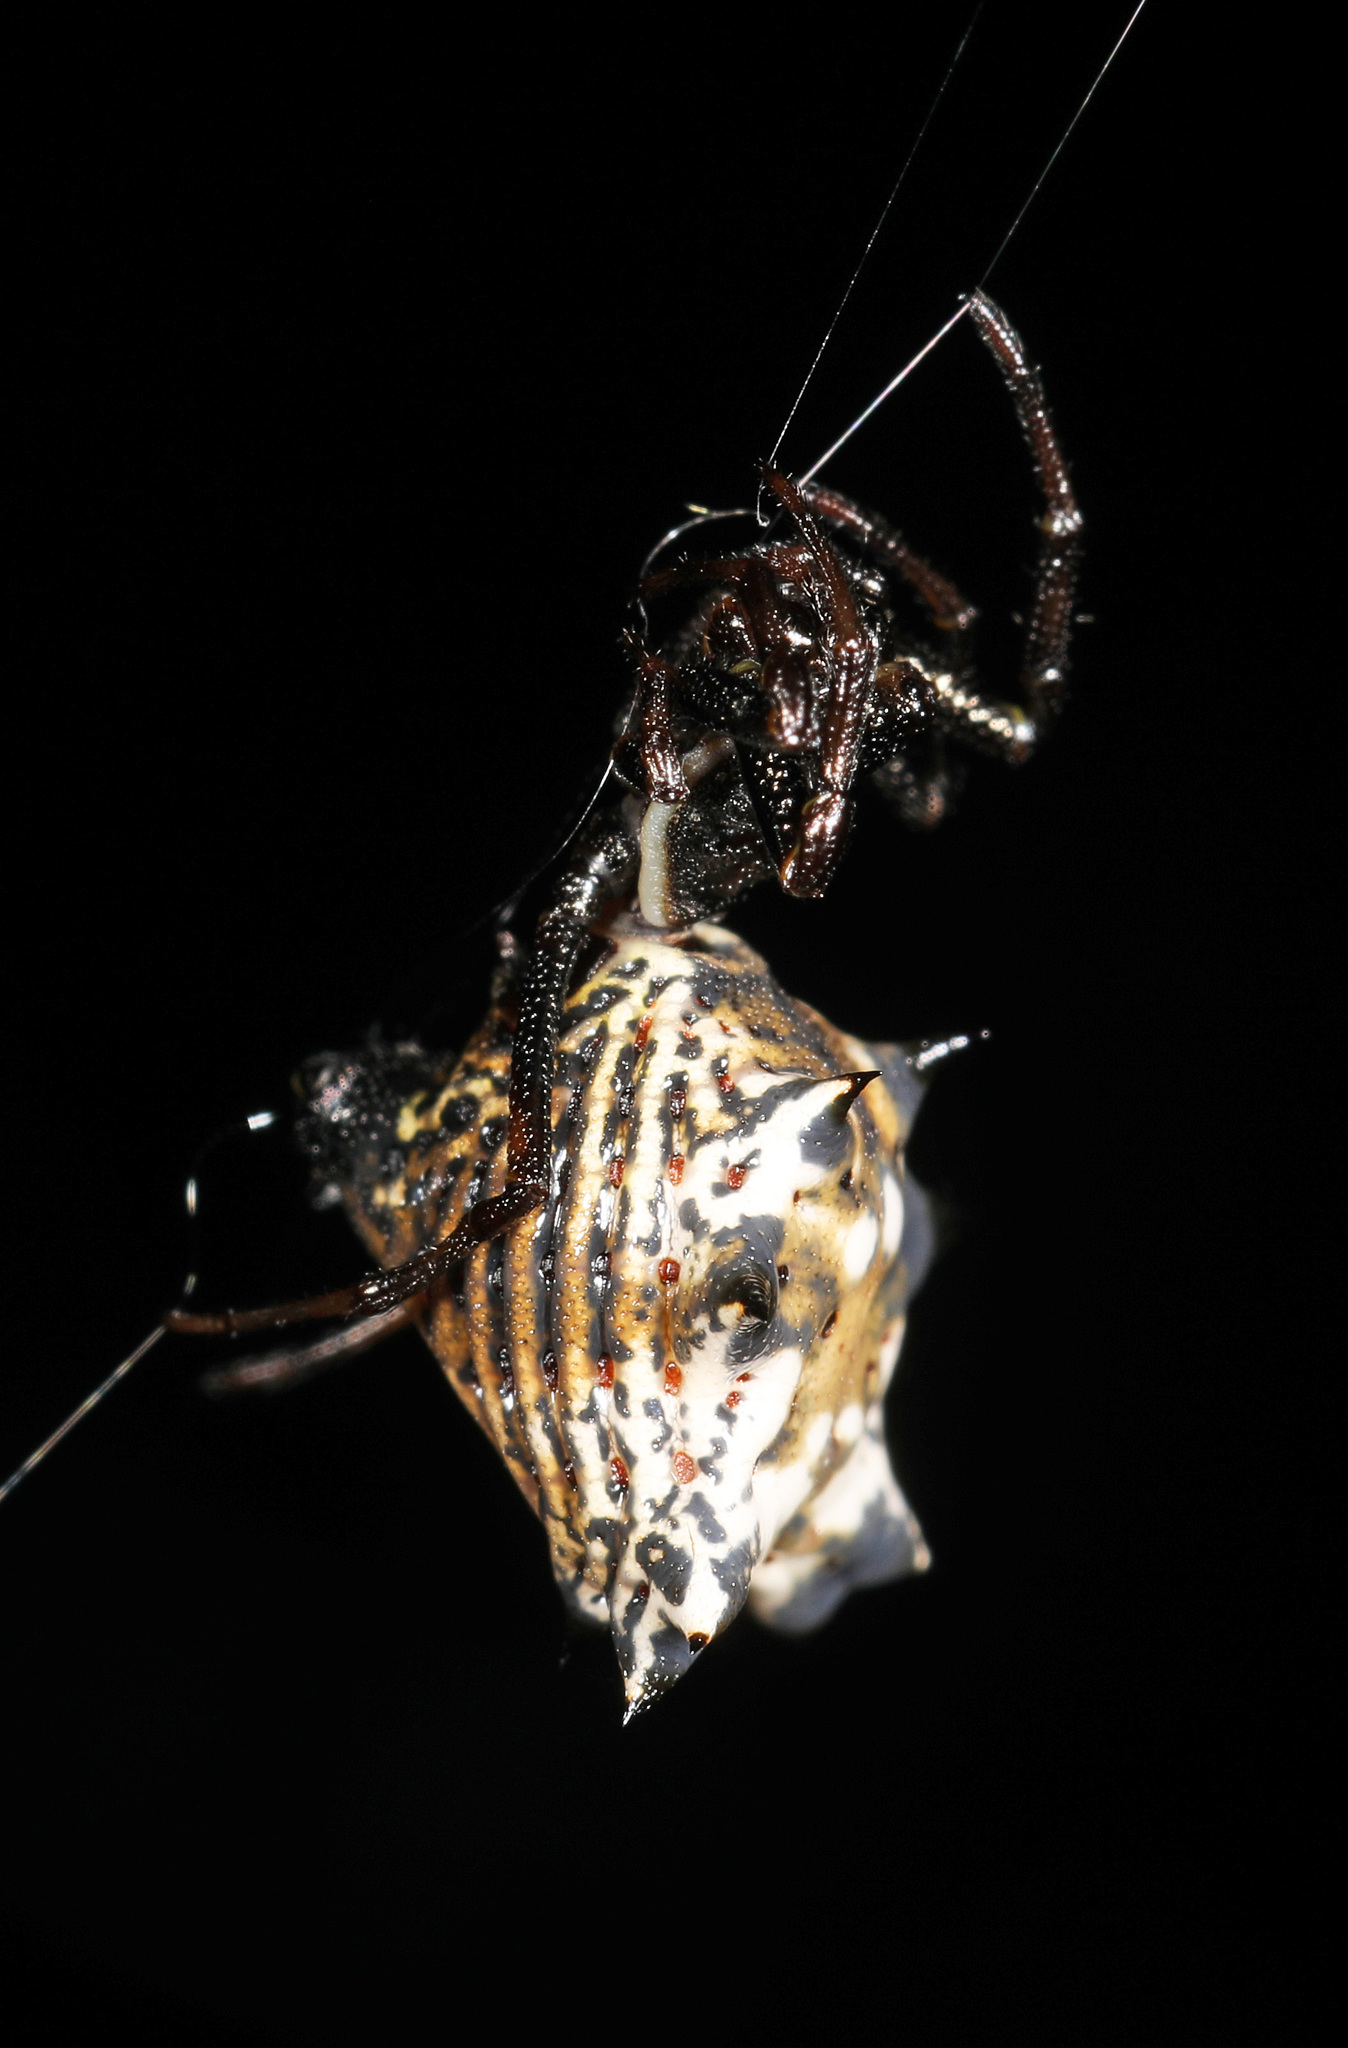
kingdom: Animalia
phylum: Arthropoda
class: Arachnida
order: Araneae
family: Araneidae
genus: Micrathena
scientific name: Micrathena gracilis
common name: Orb weavers
